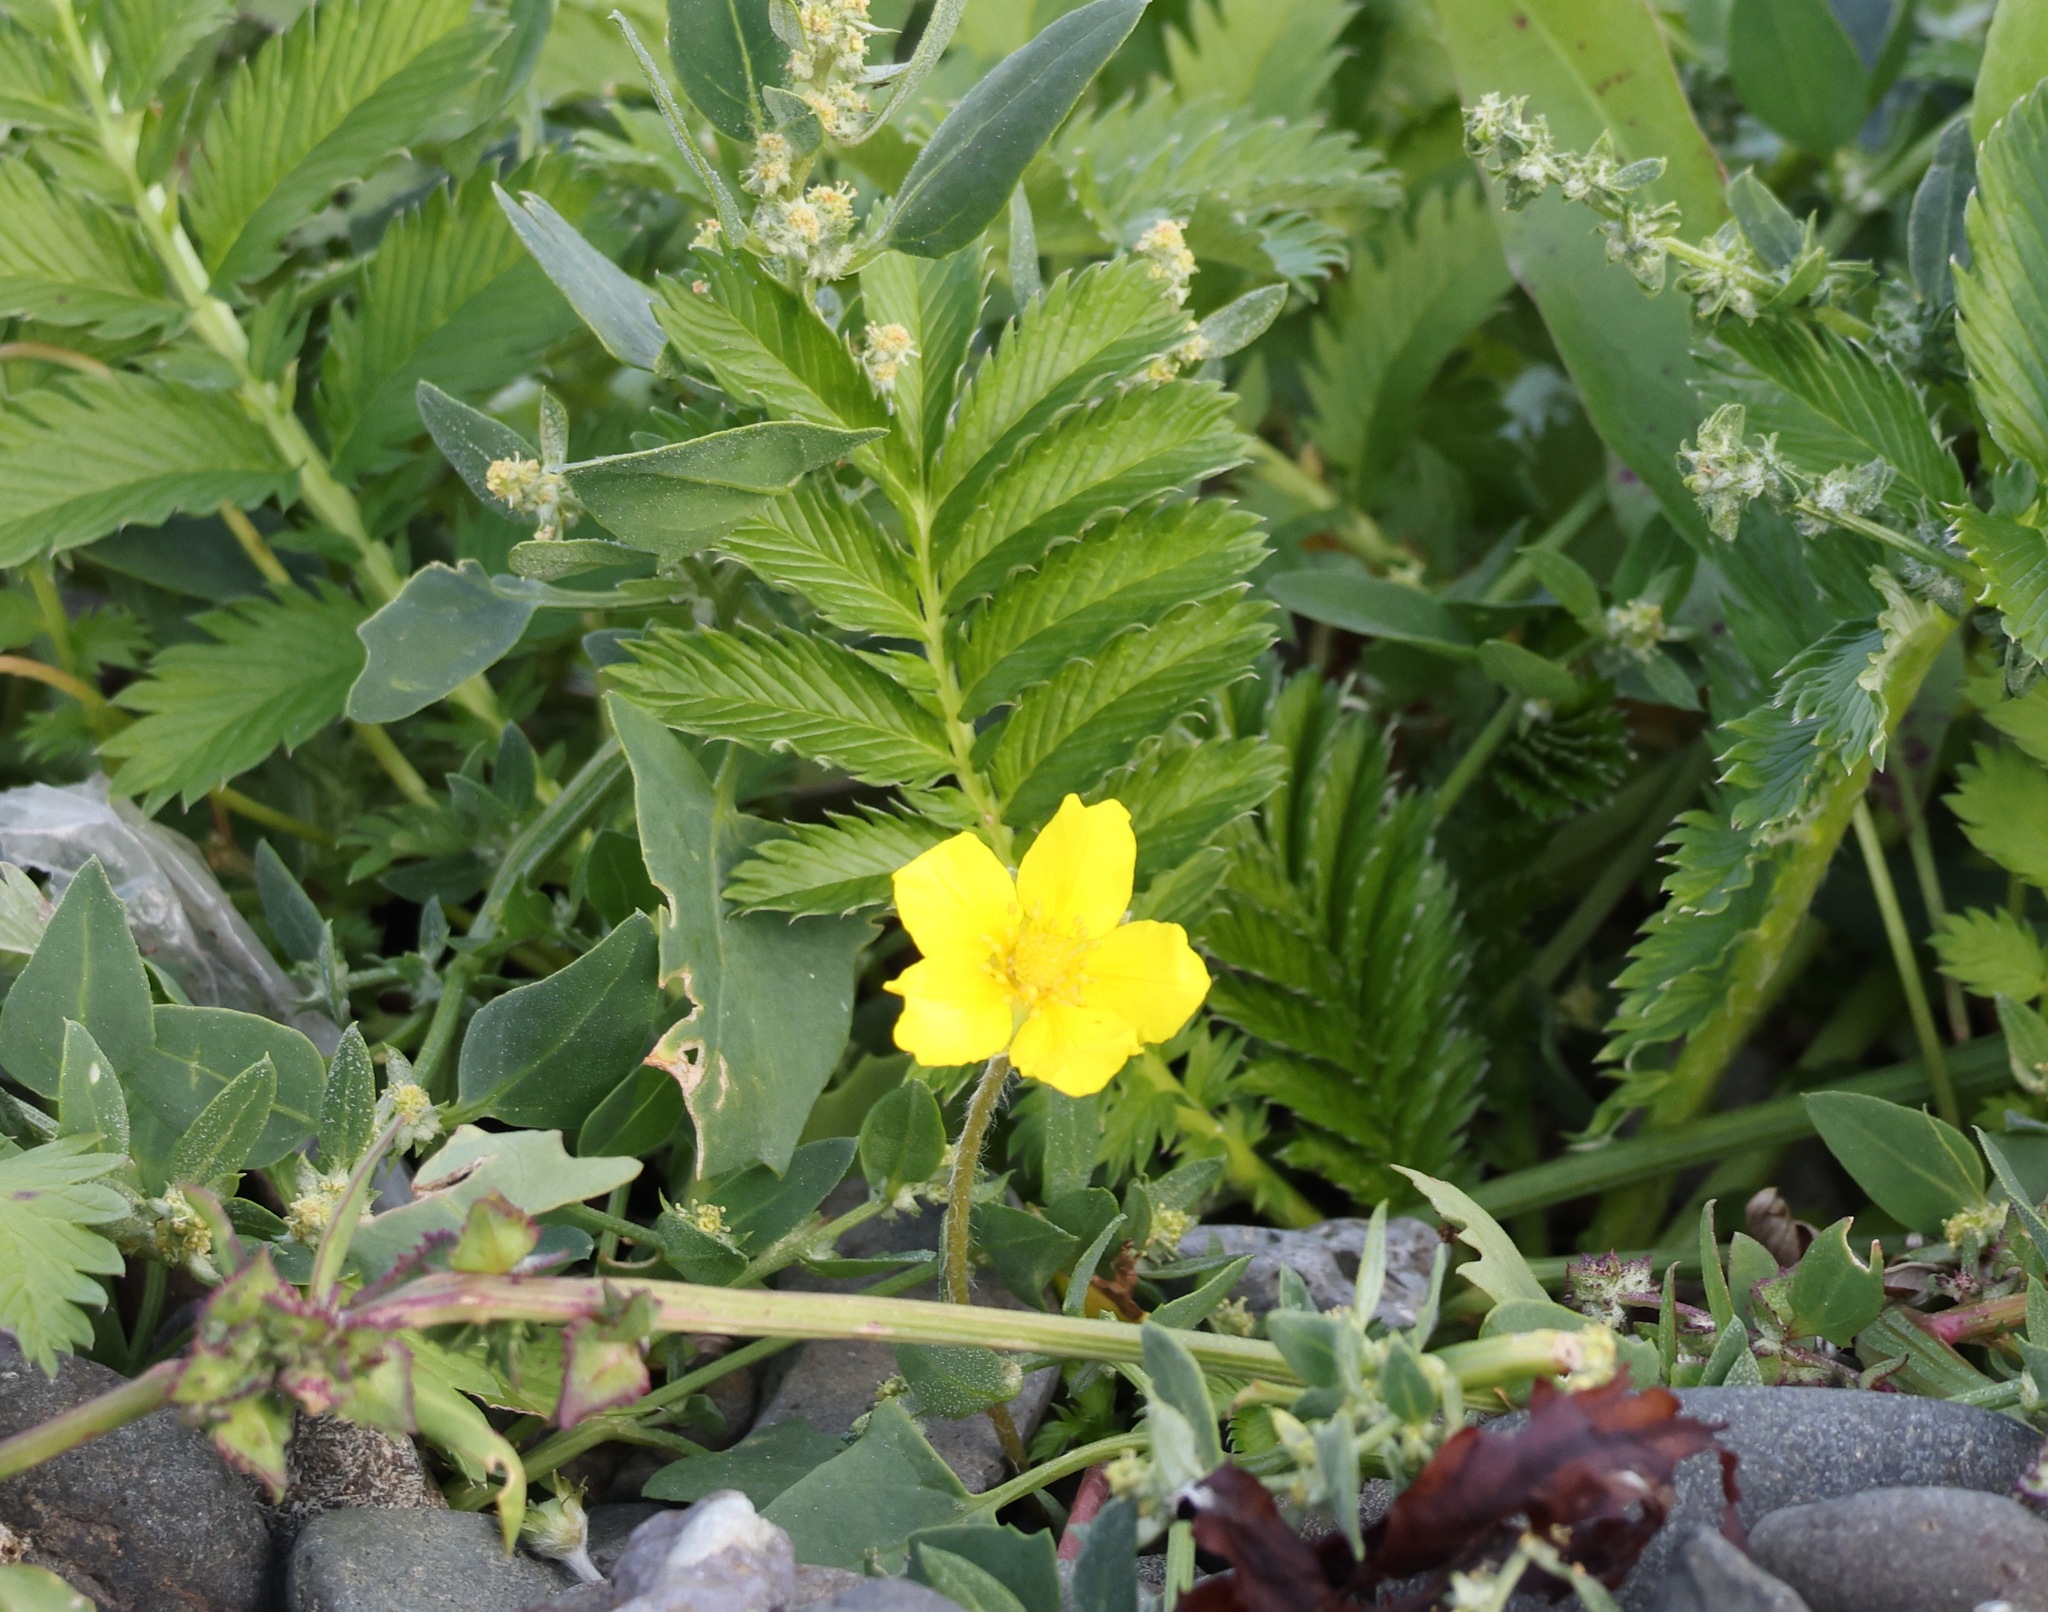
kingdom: Plantae
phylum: Tracheophyta
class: Magnoliopsida
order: Rosales
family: Rosaceae
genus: Argentina
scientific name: Argentina anserina
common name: Common silverweed
